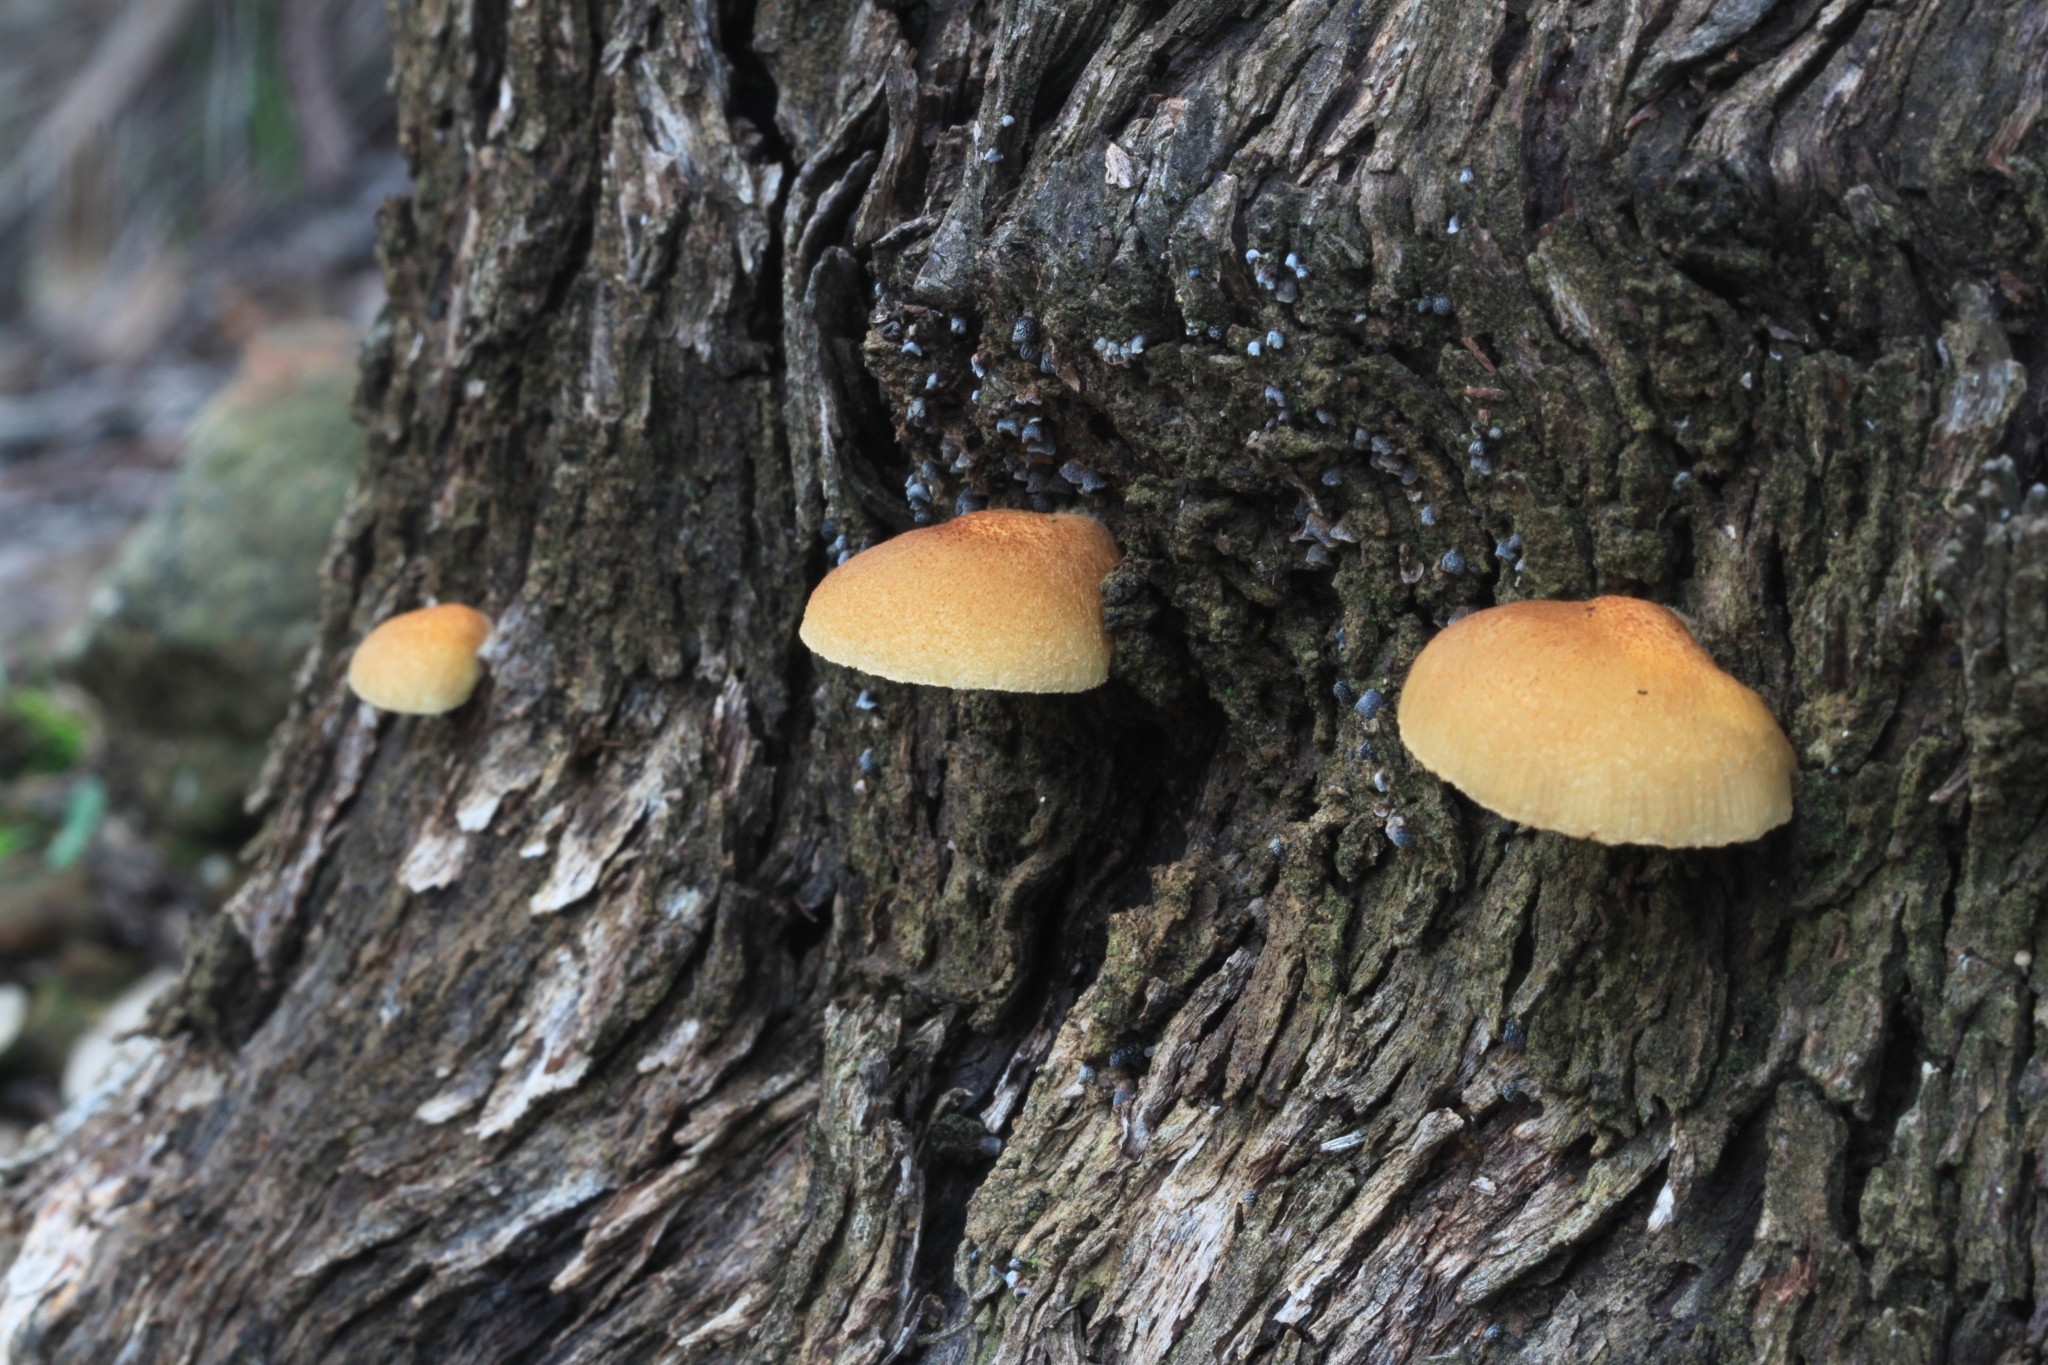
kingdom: Fungi
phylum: Basidiomycota
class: Agaricomycetes
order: Agaricales
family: Crepidotaceae
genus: Crepidotus
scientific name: Crepidotus eucalyptorum
